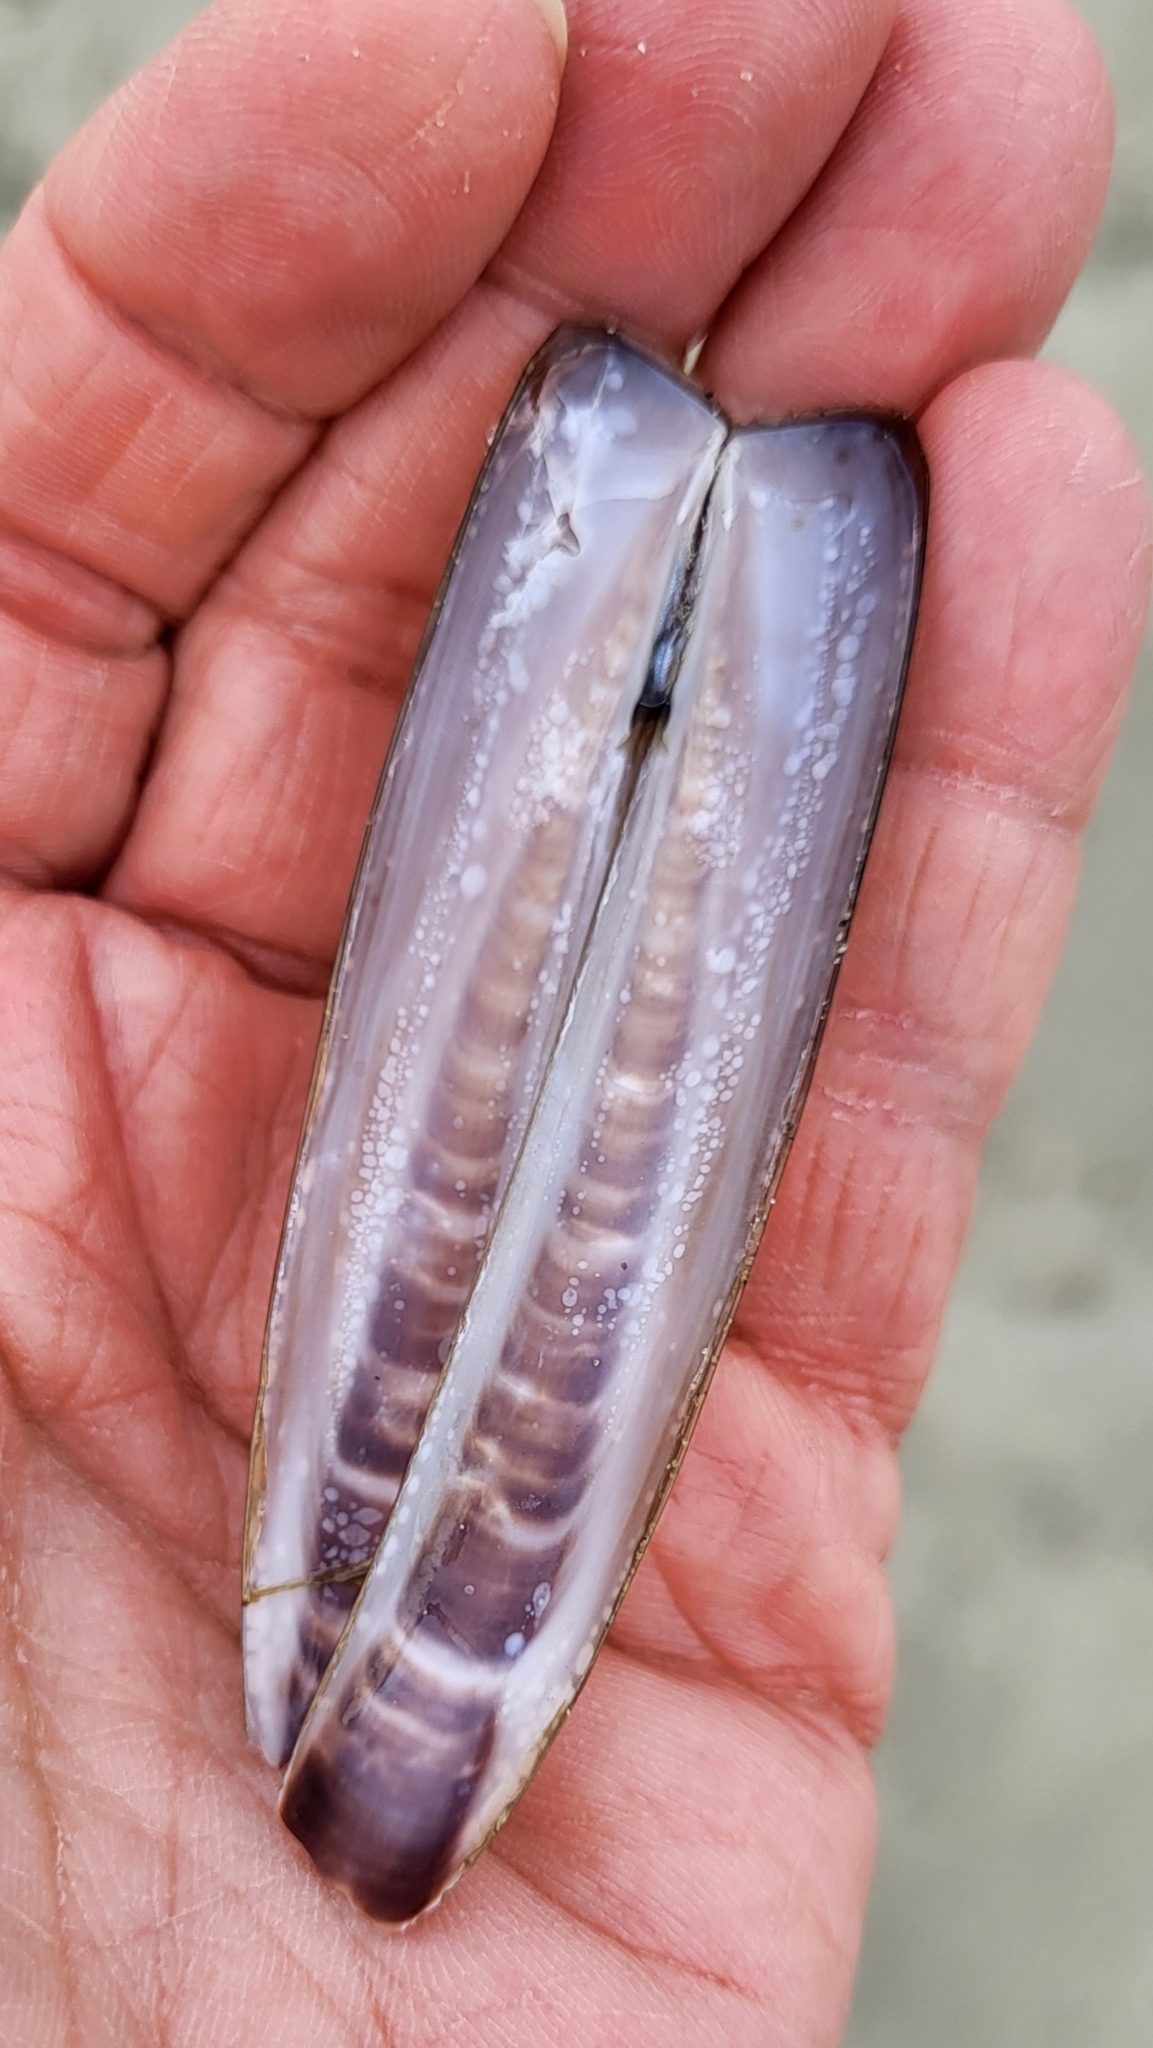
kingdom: Animalia
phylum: Mollusca
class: Bivalvia
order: Adapedonta
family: Pharidae
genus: Ensis
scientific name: Ensis leei
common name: American jack knife clam
